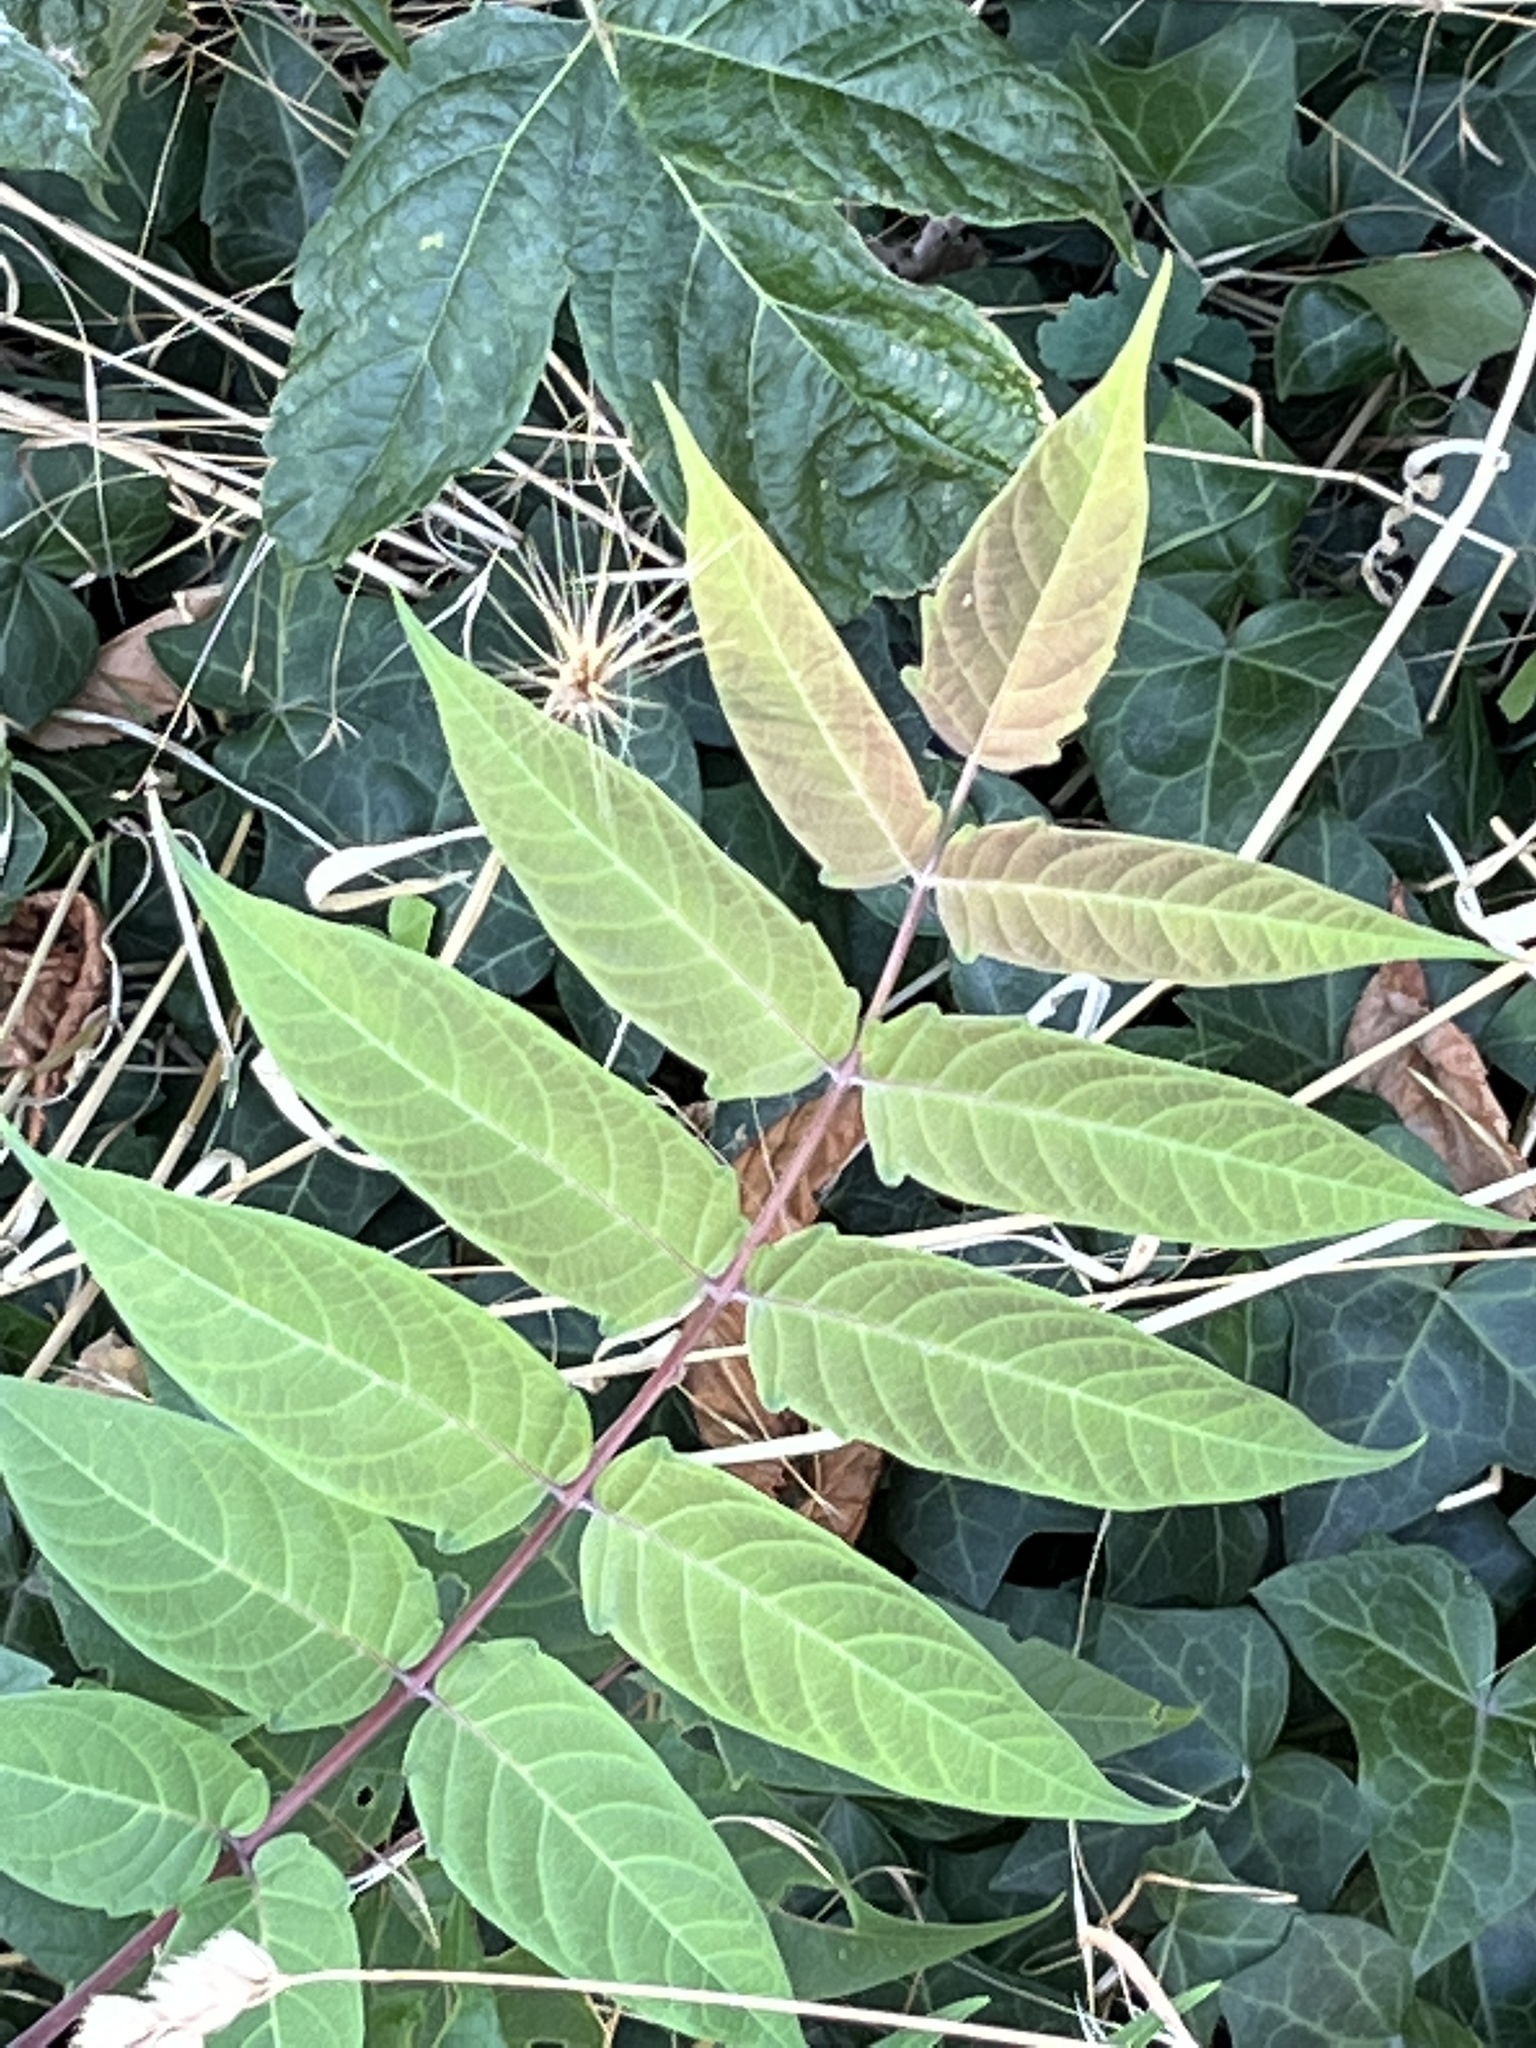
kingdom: Plantae
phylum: Tracheophyta
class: Magnoliopsida
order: Sapindales
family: Simaroubaceae
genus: Ailanthus
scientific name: Ailanthus altissima
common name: Tree-of-heaven
